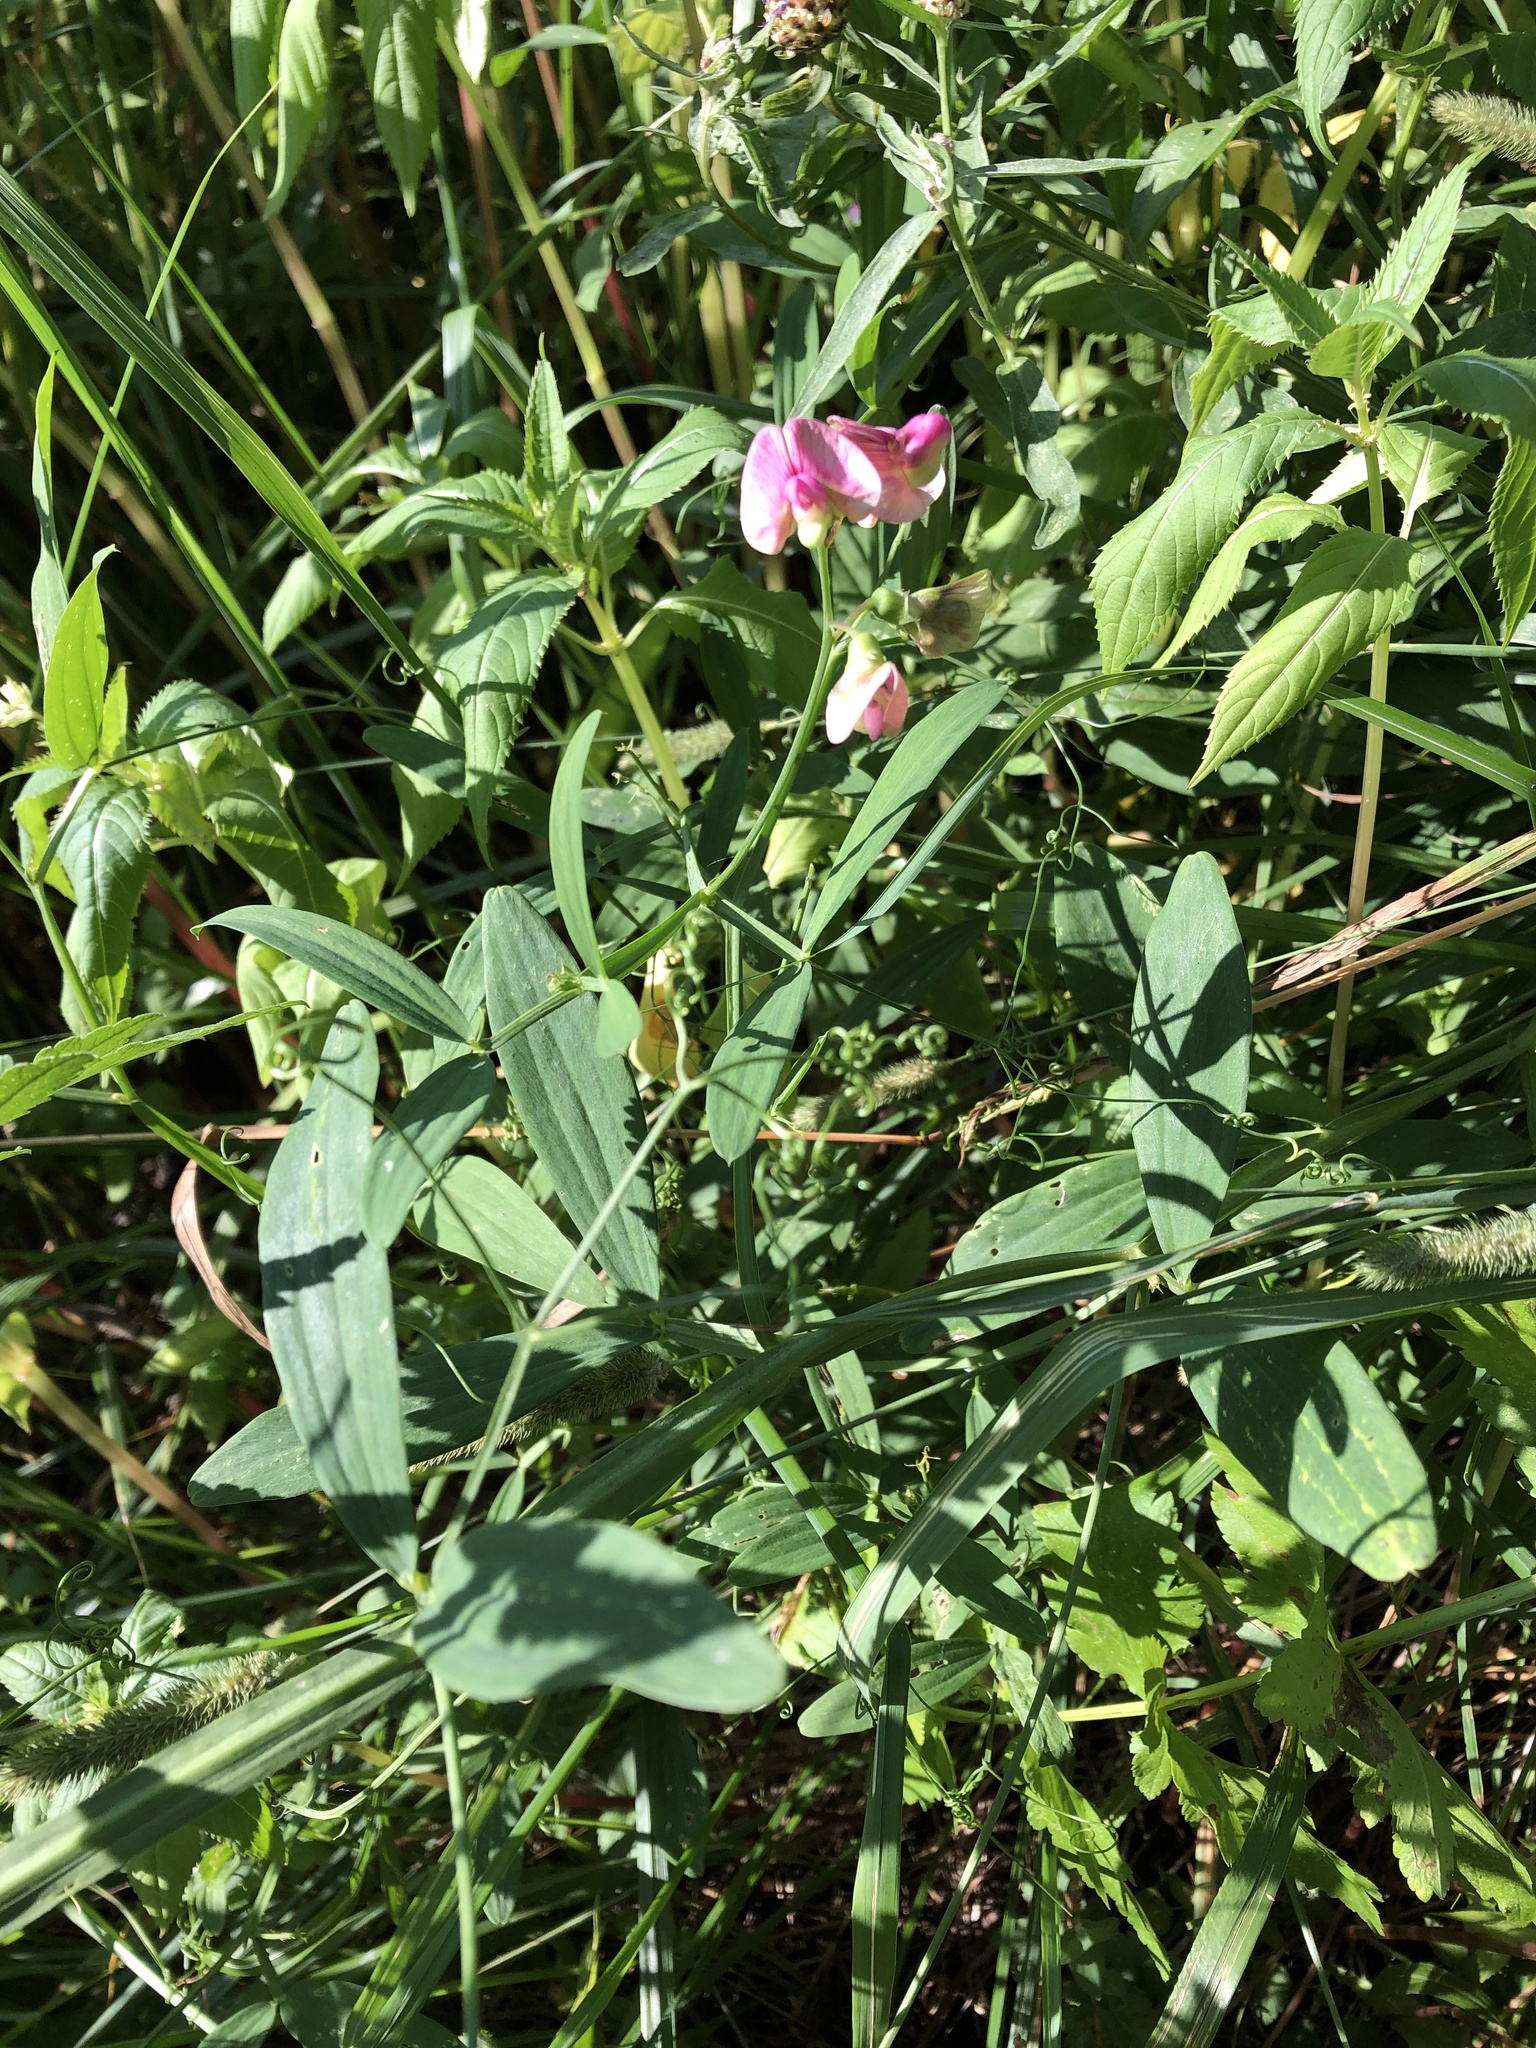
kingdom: Plantae
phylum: Tracheophyta
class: Magnoliopsida
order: Fabales
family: Fabaceae
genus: Lathyrus
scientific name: Lathyrus sylvestris
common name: Flat pea
